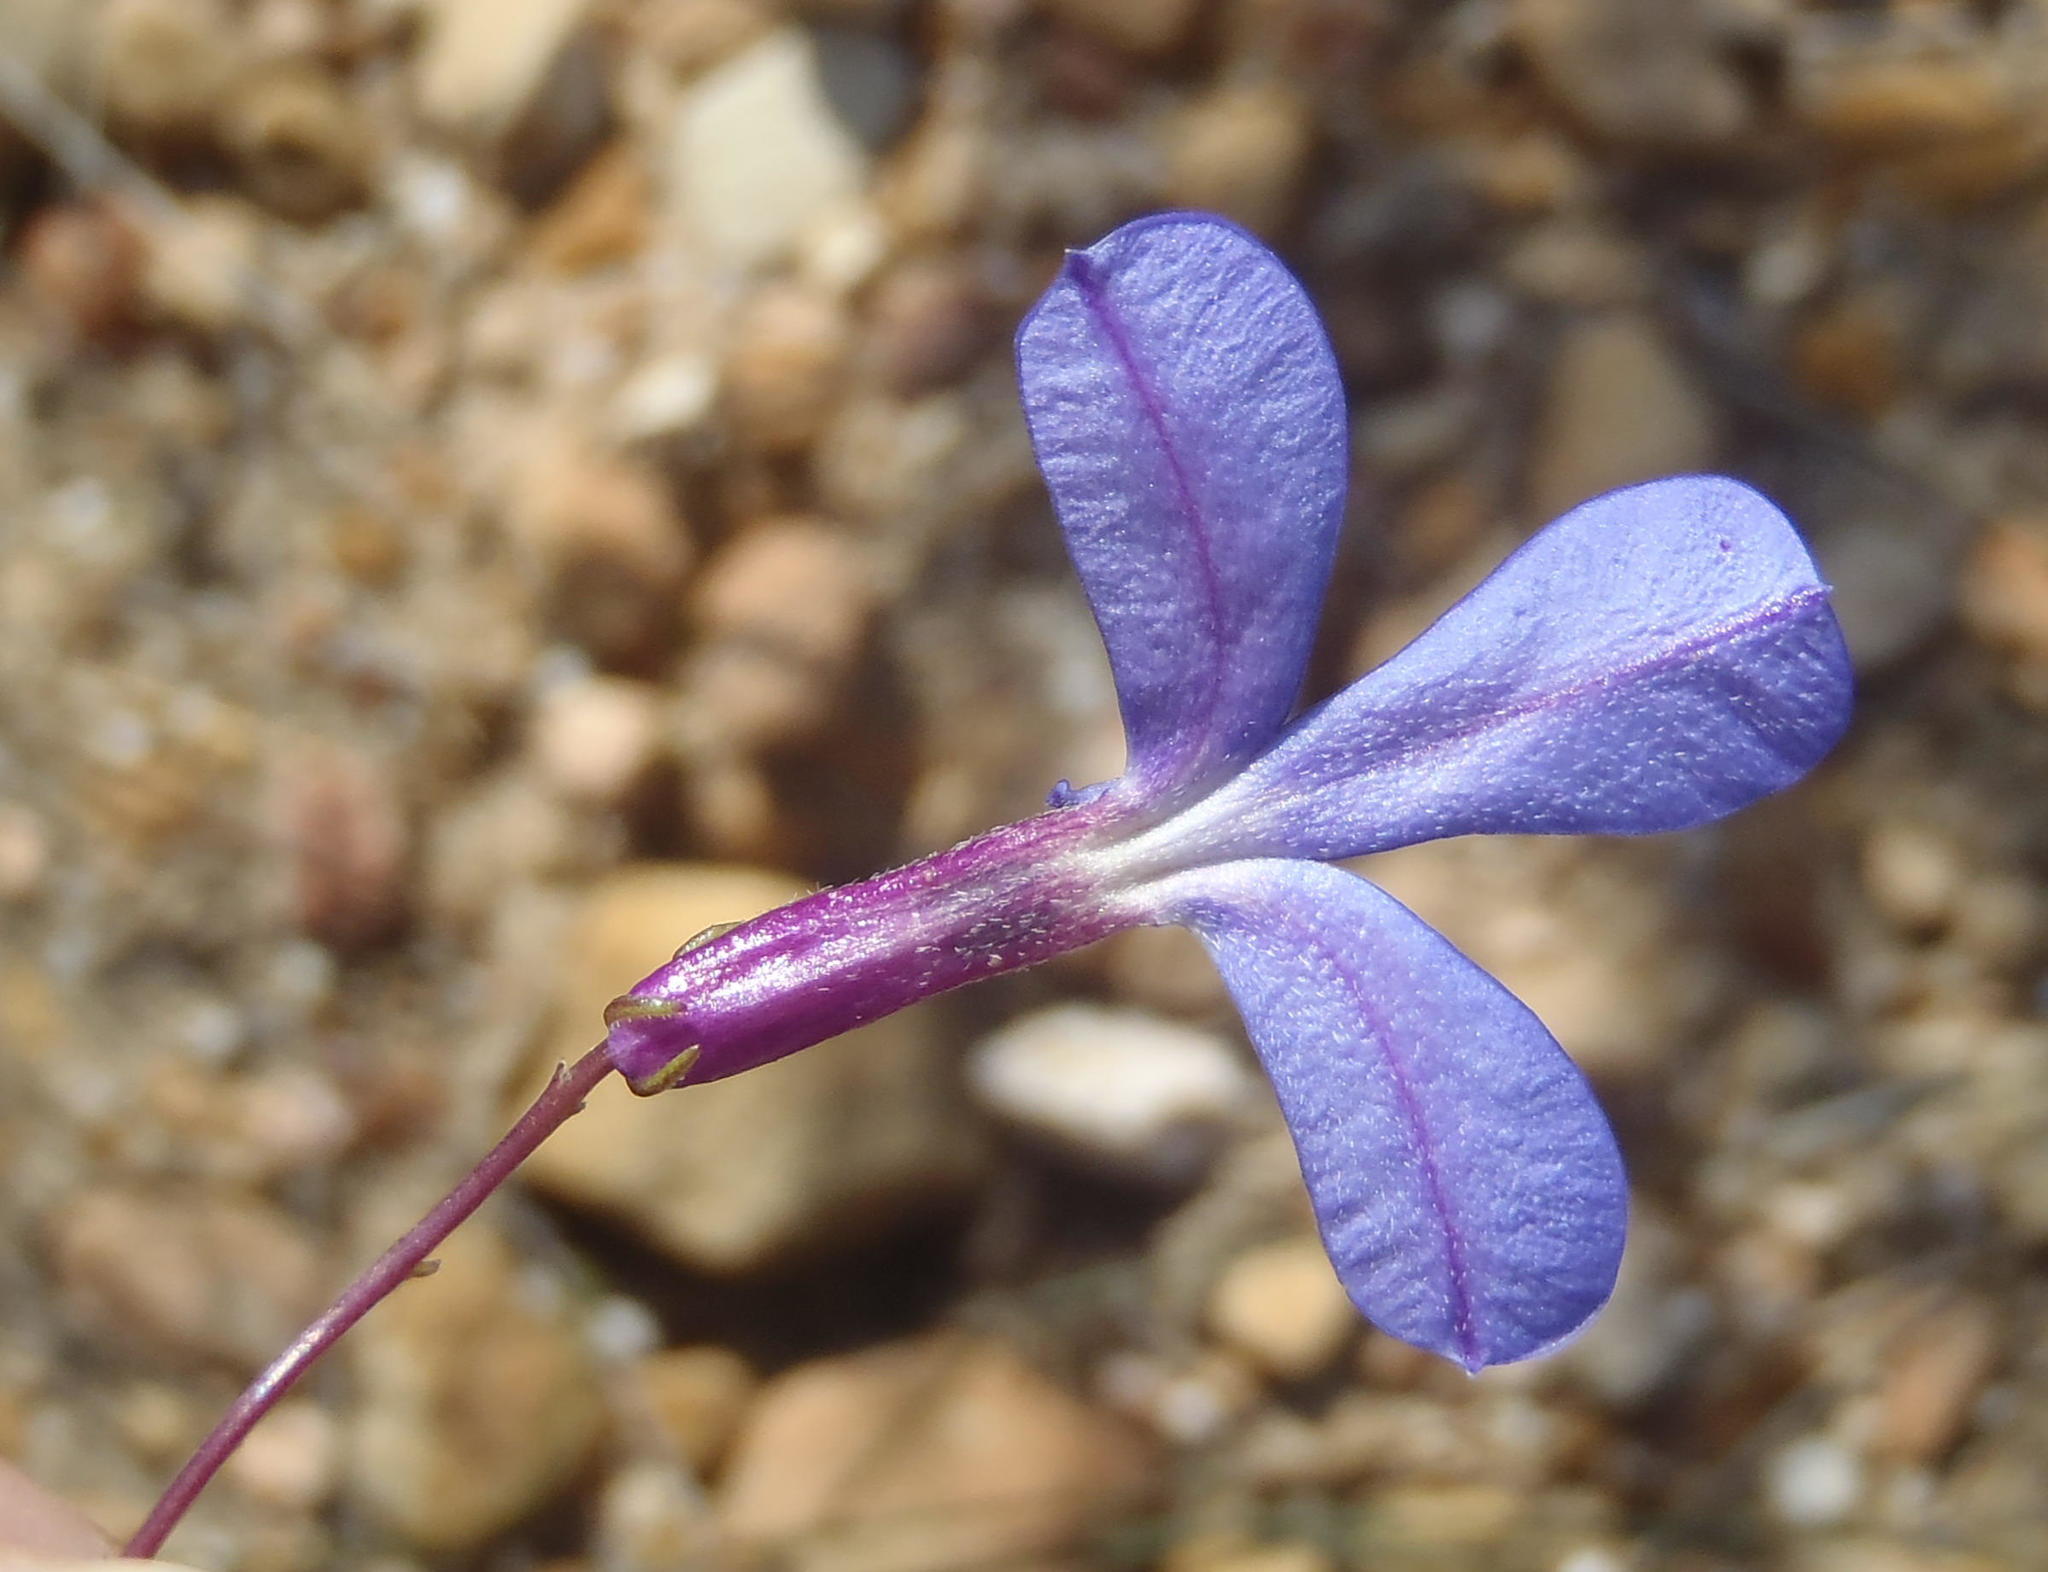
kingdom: Plantae
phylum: Tracheophyta
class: Magnoliopsida
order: Asterales
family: Campanulaceae
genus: Lobelia
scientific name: Lobelia tomentosa
